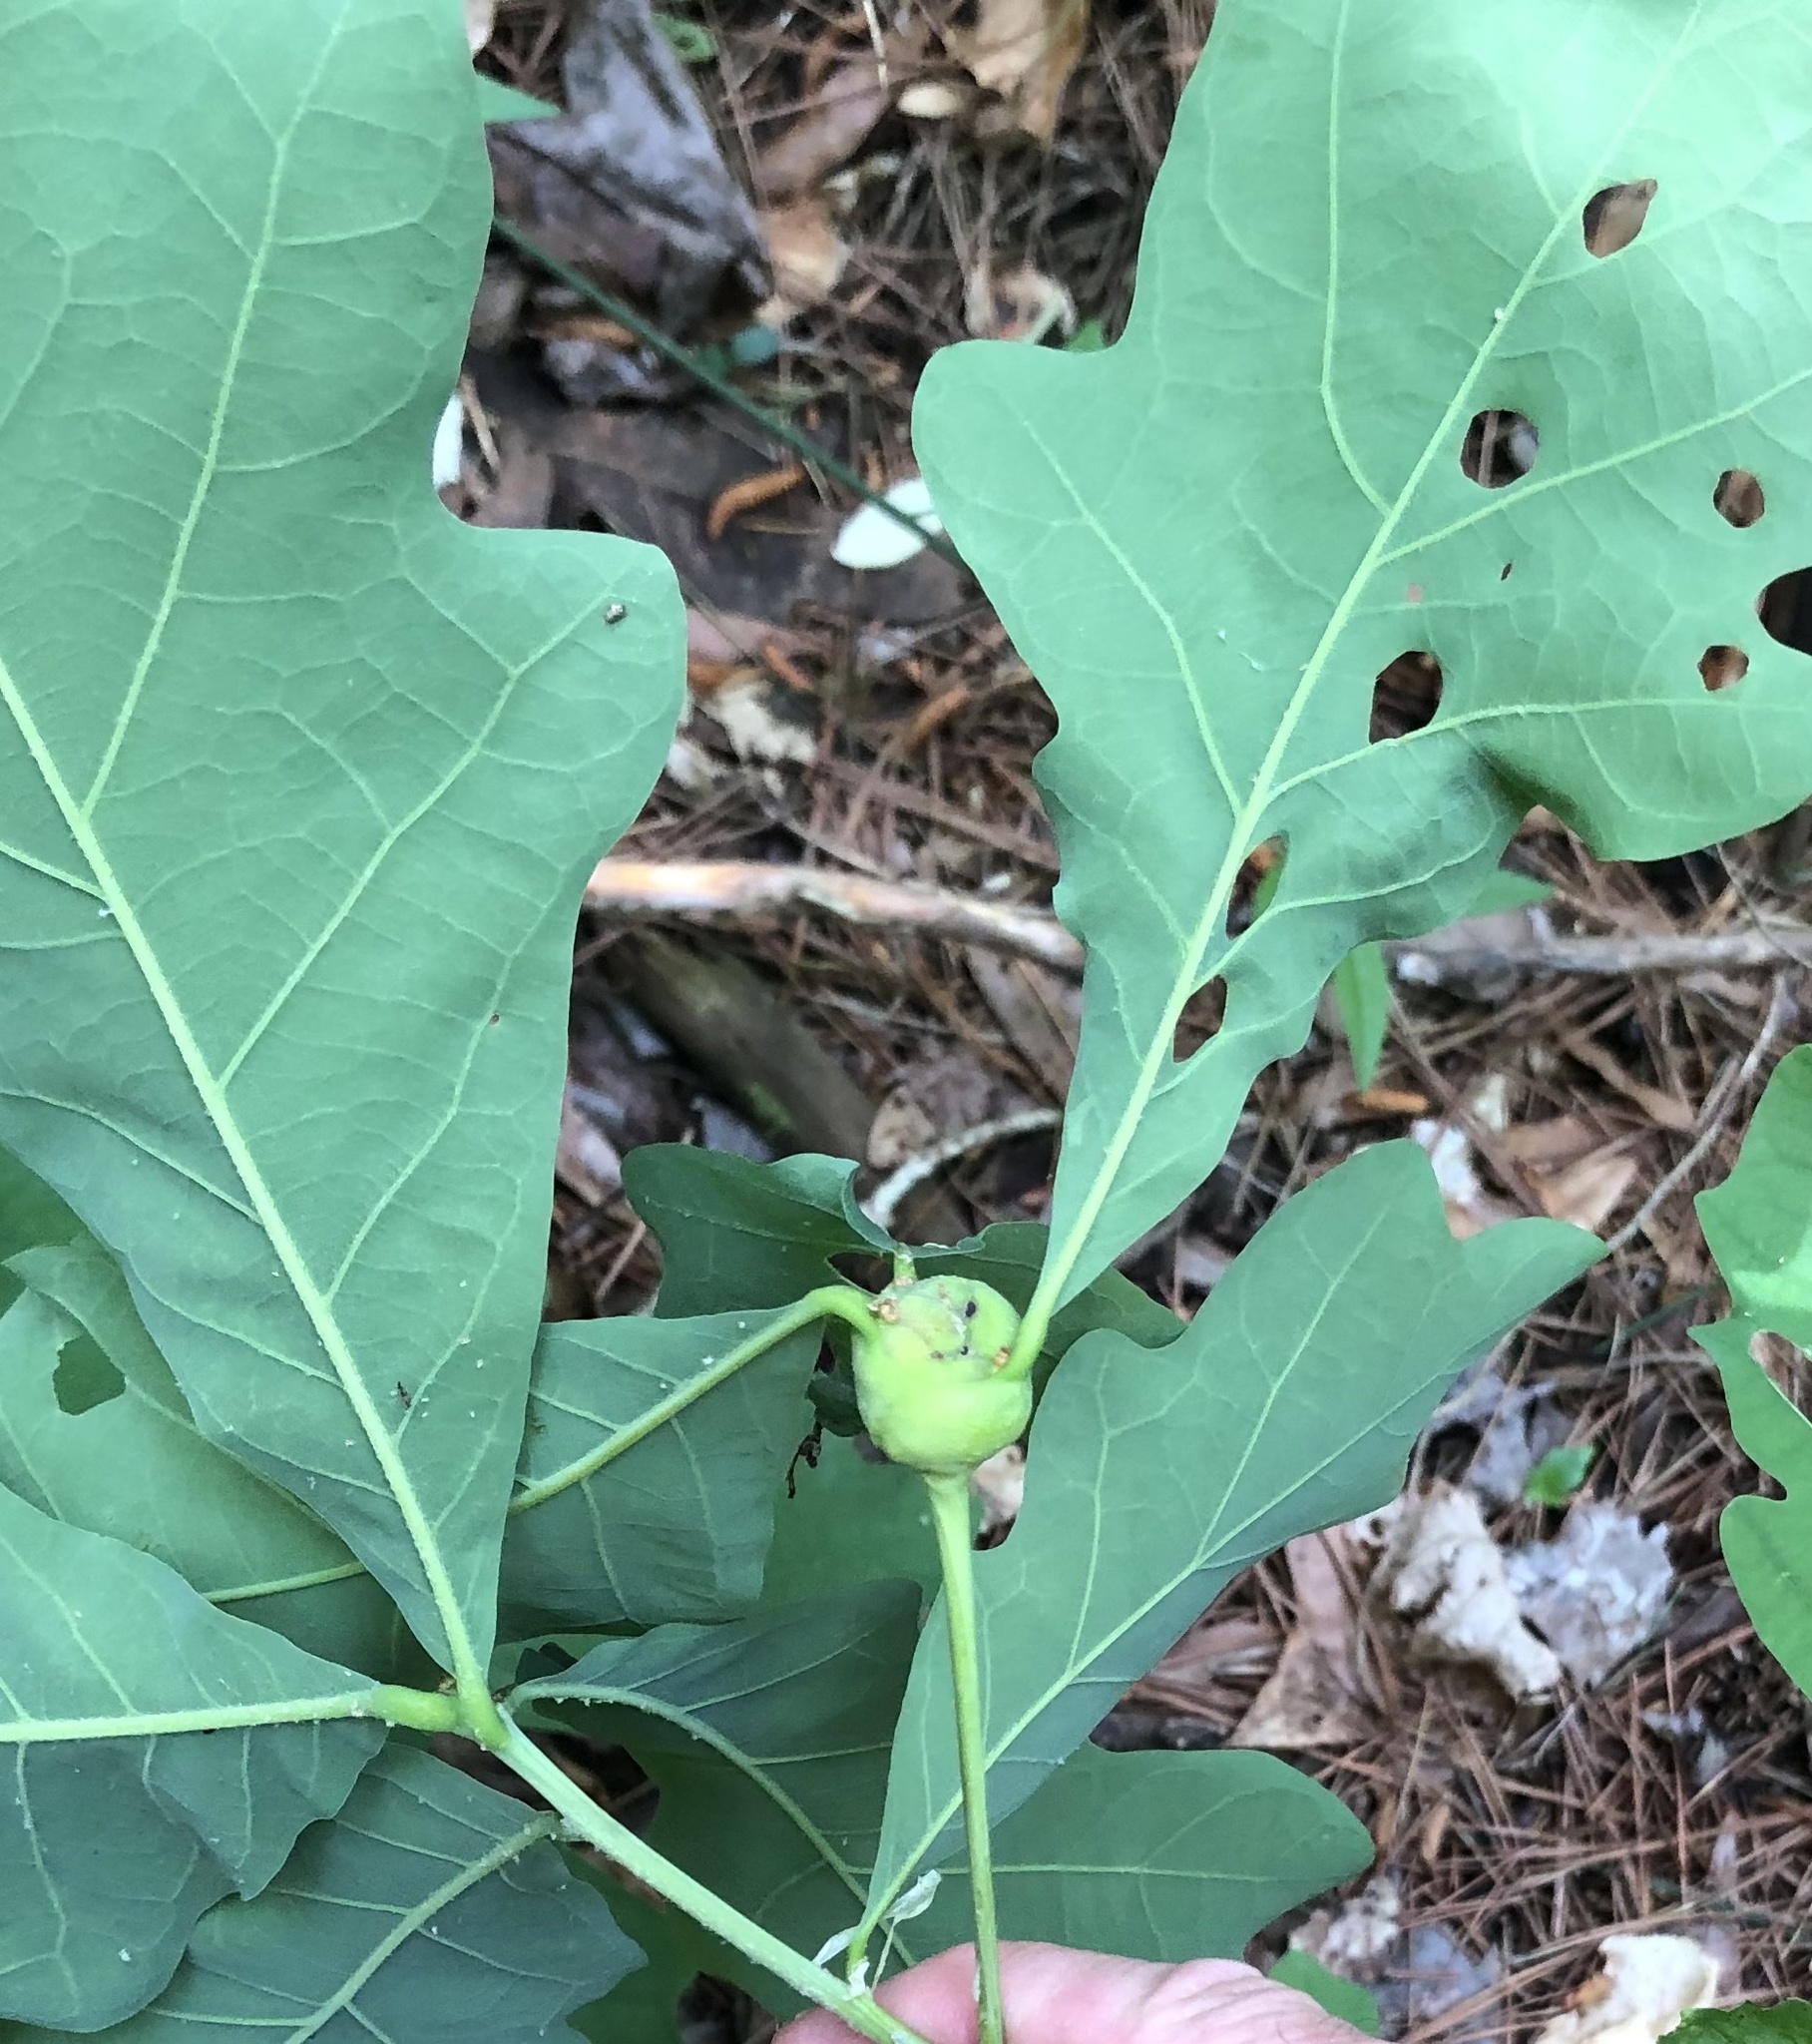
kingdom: Animalia
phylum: Arthropoda
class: Insecta
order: Hymenoptera
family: Cynipidae
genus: Callirhytis
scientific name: Callirhytis clavula
